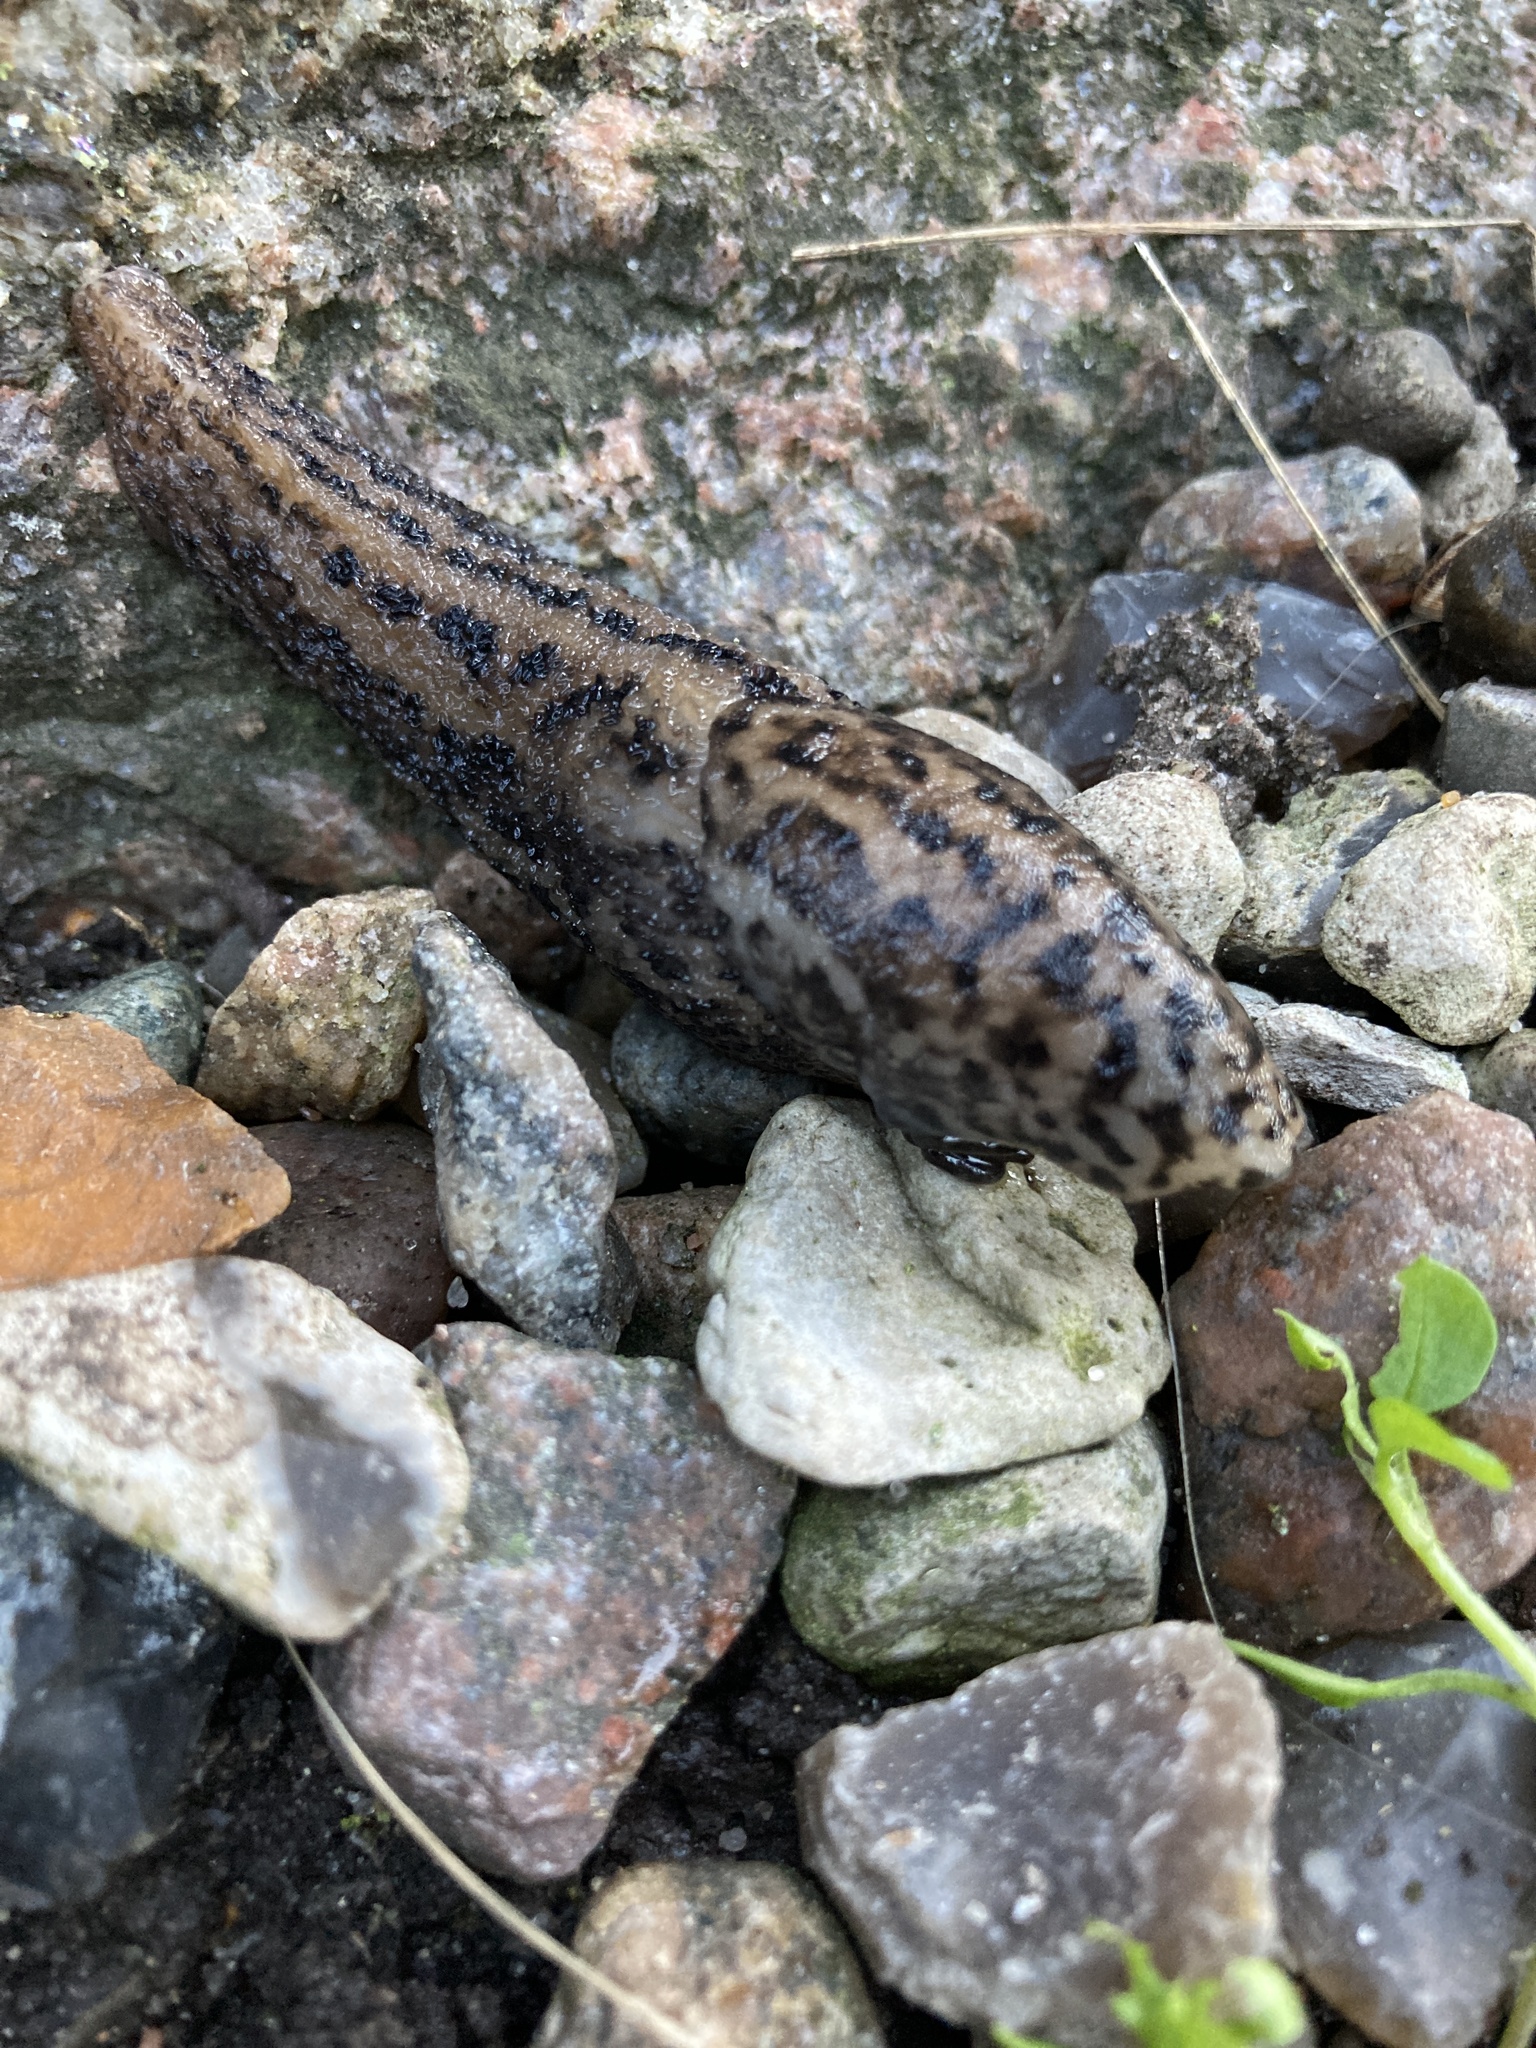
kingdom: Animalia
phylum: Mollusca
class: Gastropoda
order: Stylommatophora
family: Limacidae
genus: Limax
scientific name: Limax maximus
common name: Great grey slug
